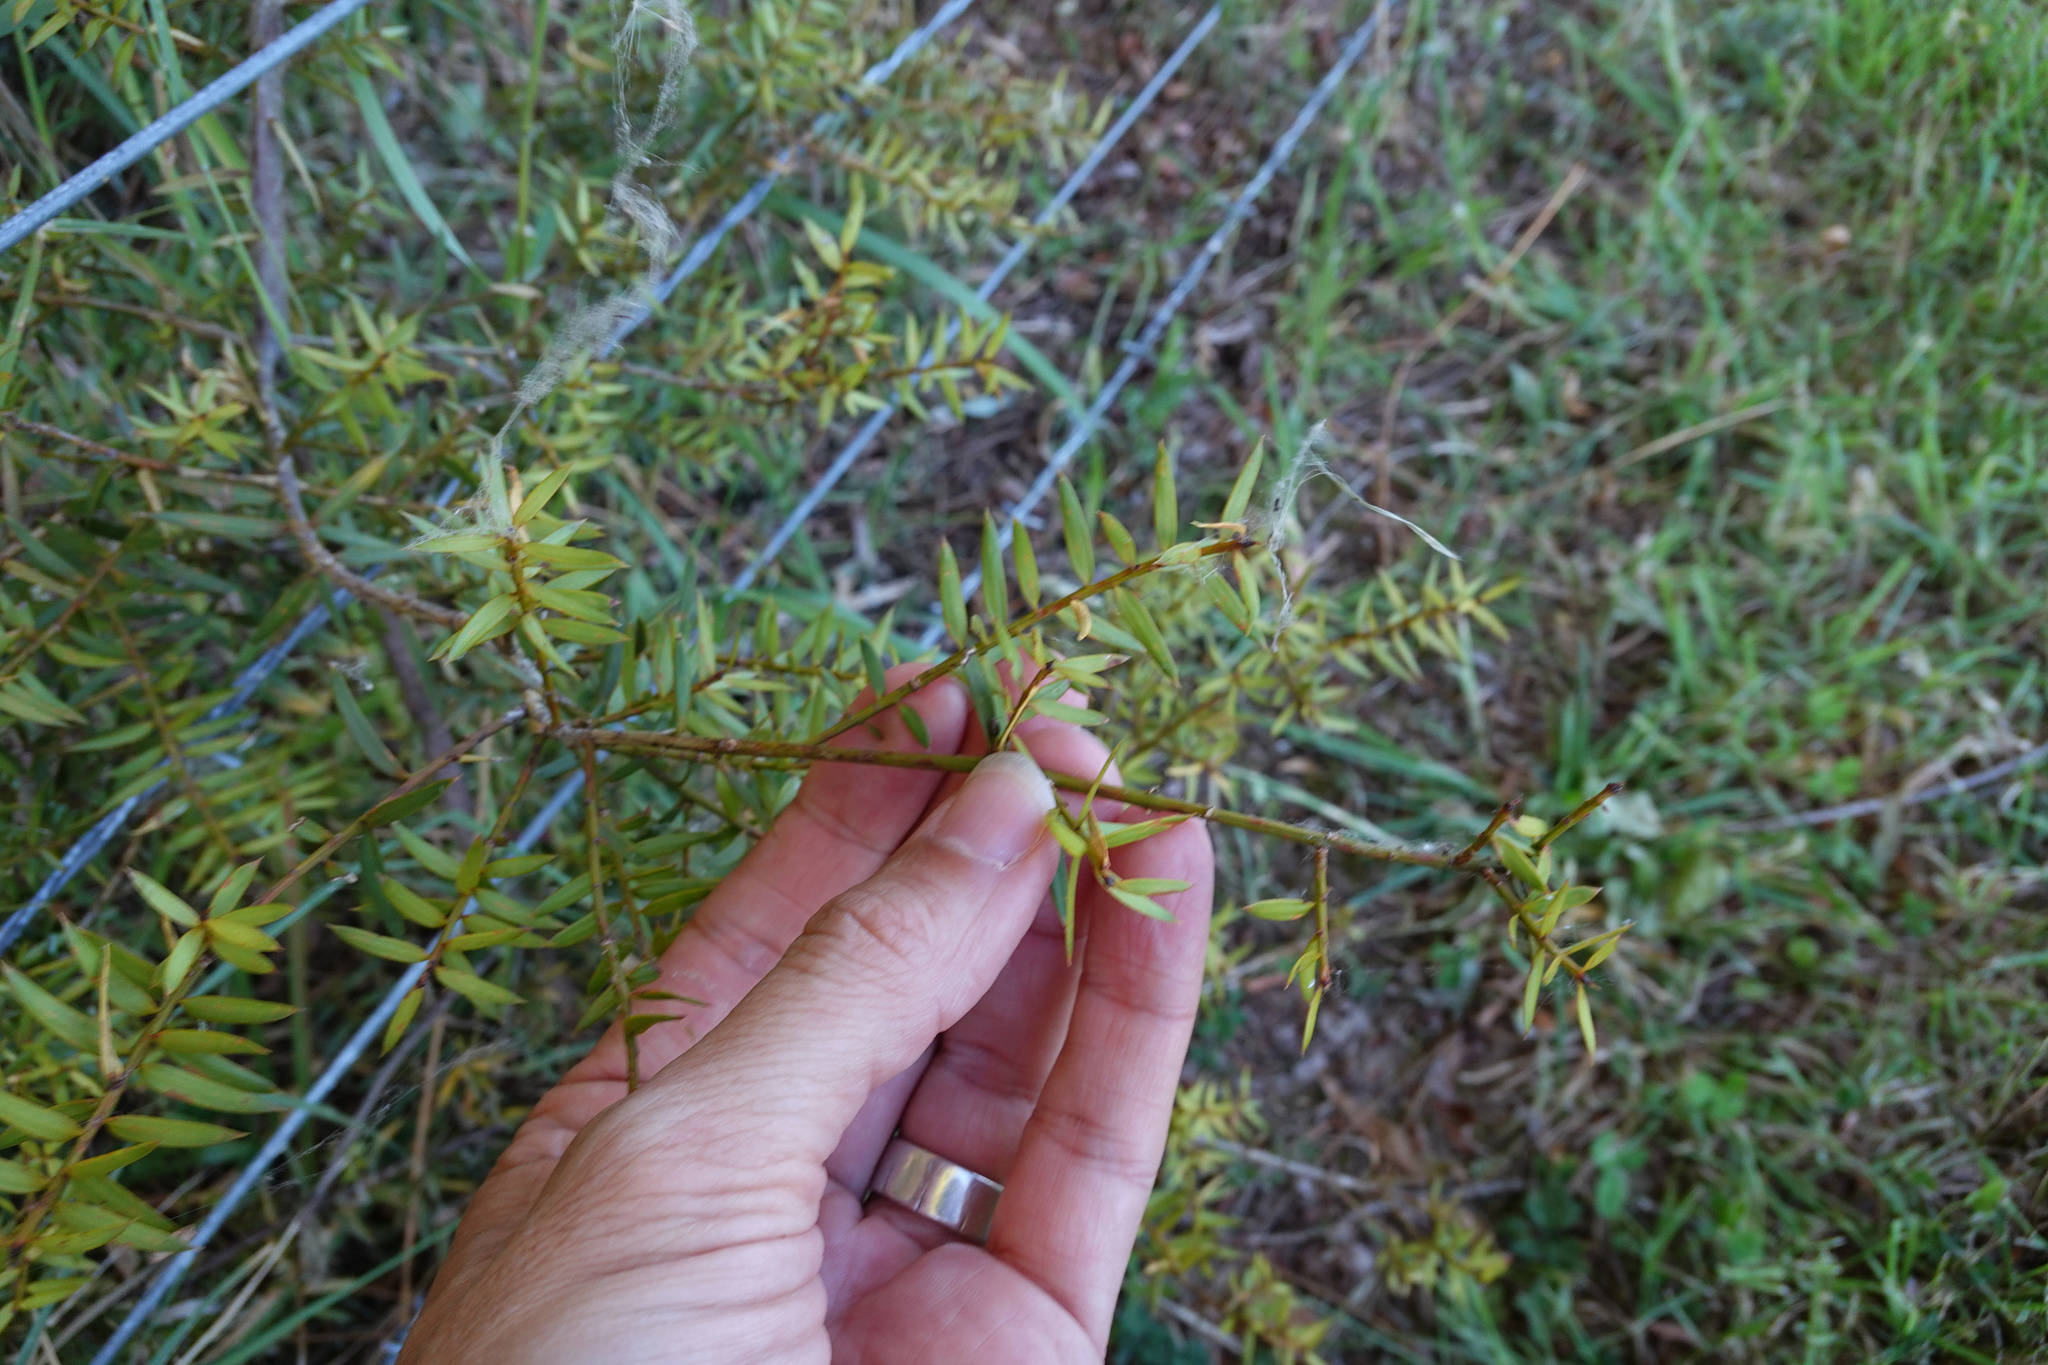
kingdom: Plantae
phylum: Tracheophyta
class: Pinopsida
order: Pinales
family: Podocarpaceae
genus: Podocarpus
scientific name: Podocarpus totara
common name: Totara
